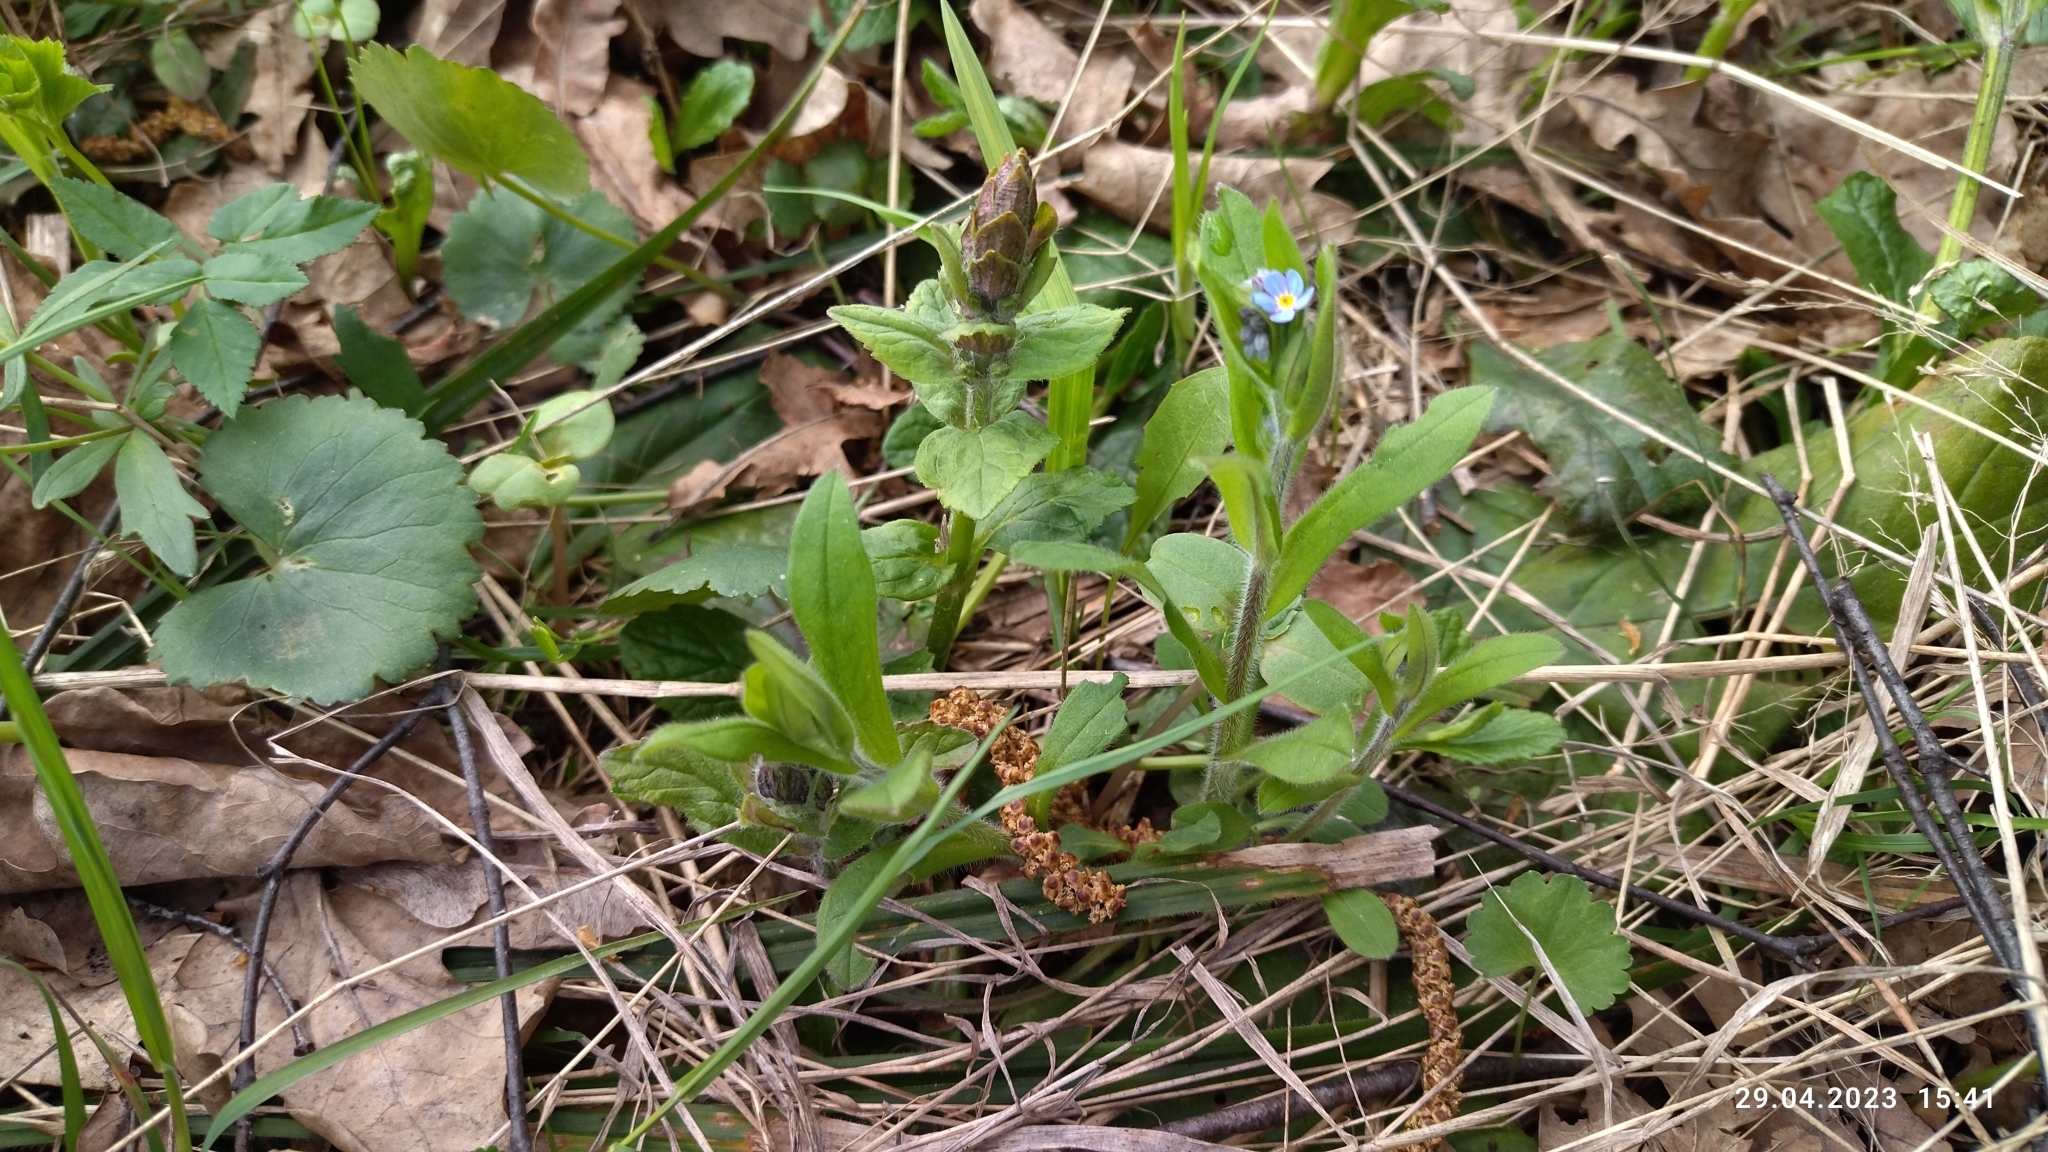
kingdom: Plantae
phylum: Tracheophyta
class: Magnoliopsida
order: Boraginales
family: Boraginaceae
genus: Myosotis
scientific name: Myosotis sylvatica
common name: Wood forget-me-not
